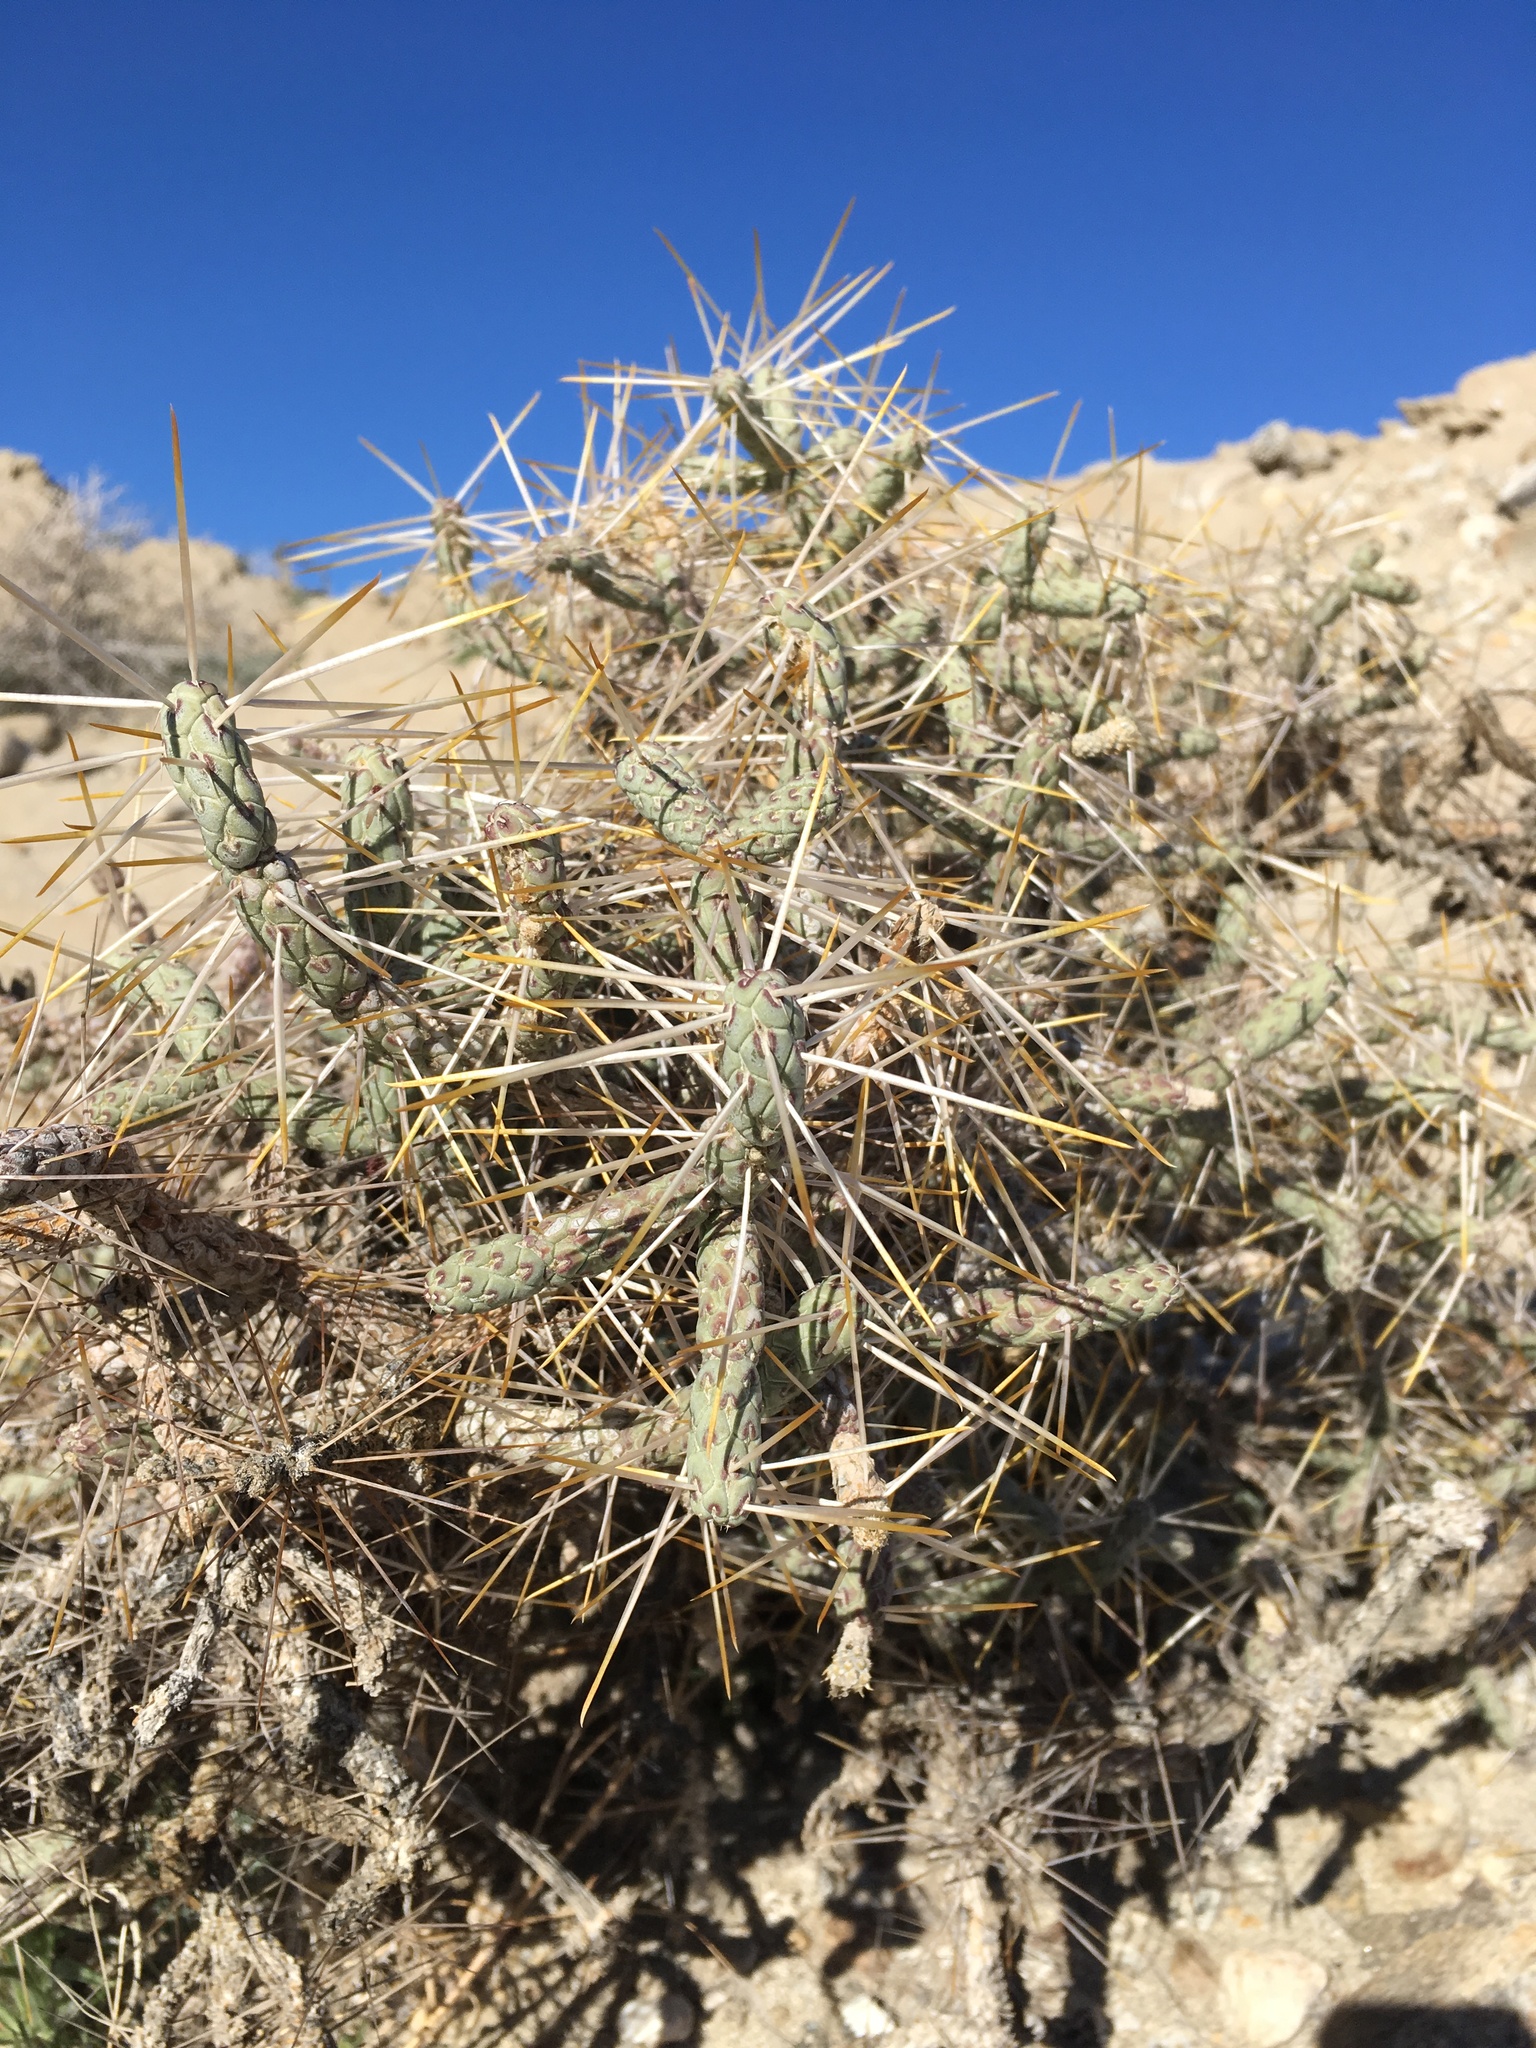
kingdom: Plantae
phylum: Tracheophyta
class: Magnoliopsida
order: Caryophyllales
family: Cactaceae
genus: Cylindropuntia
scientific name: Cylindropuntia ramosissima
